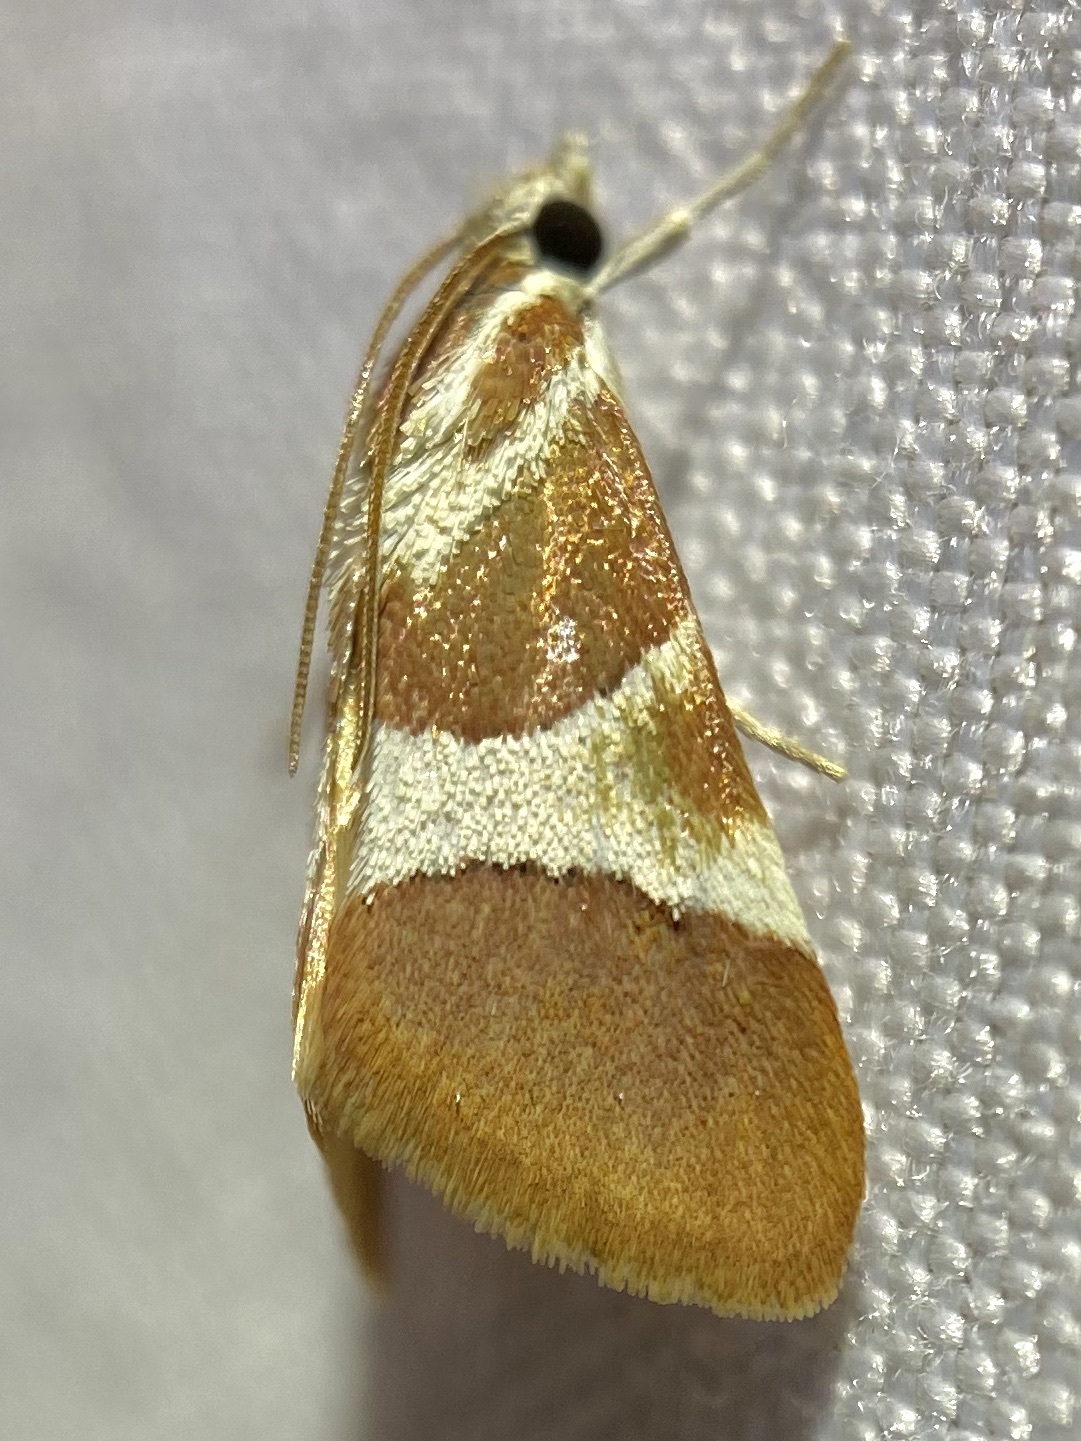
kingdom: Animalia
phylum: Arthropoda
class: Insecta
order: Lepidoptera
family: Crambidae
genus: Jativa
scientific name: Jativa castanealis
